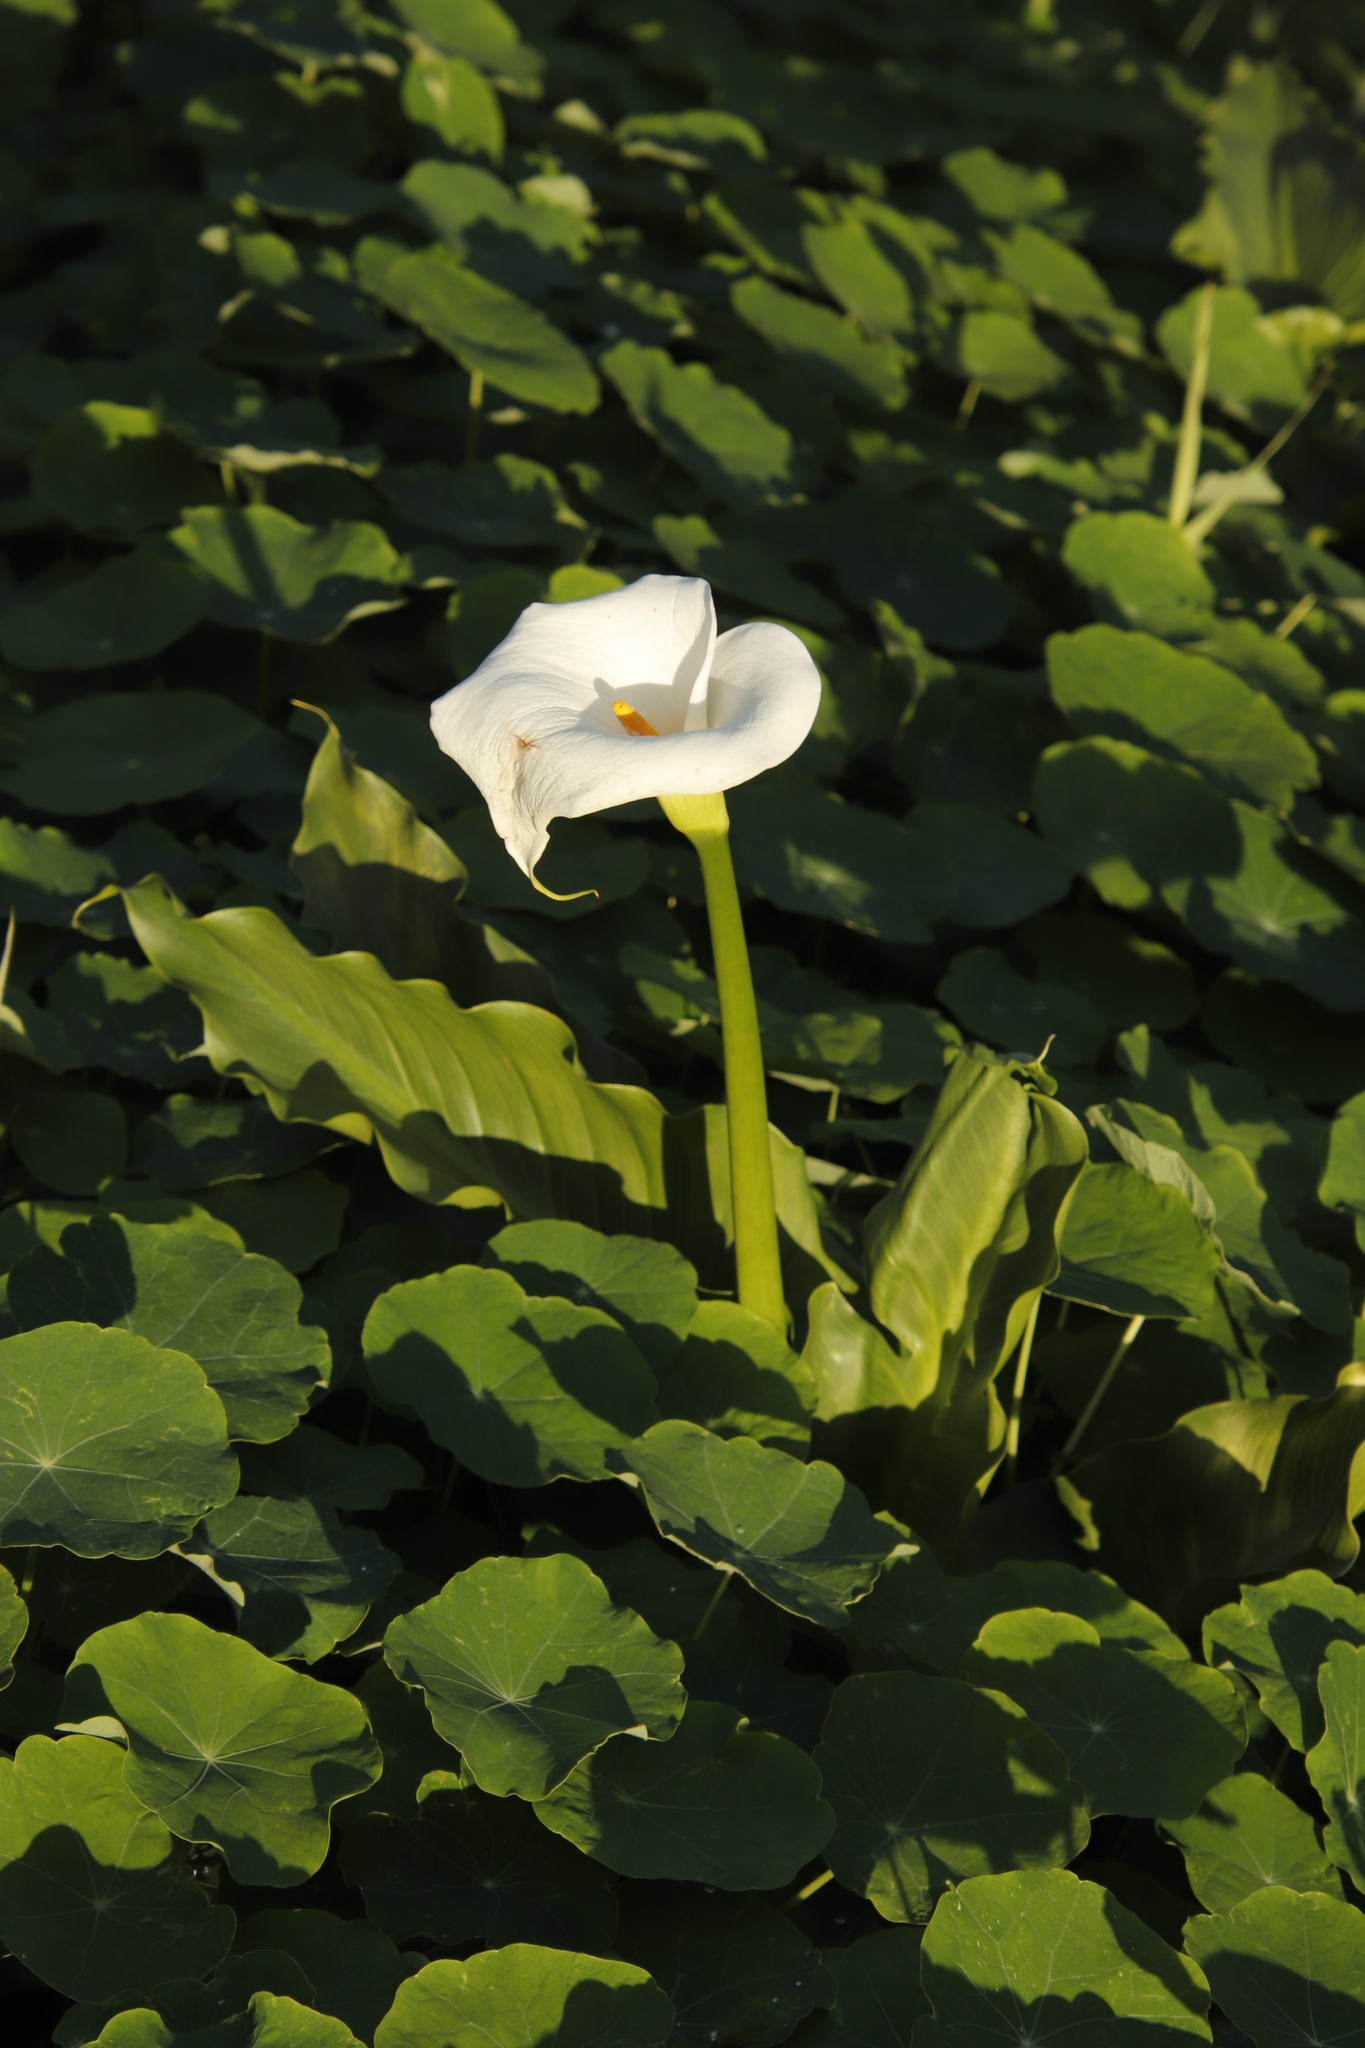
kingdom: Plantae
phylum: Tracheophyta
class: Liliopsida
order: Alismatales
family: Araceae
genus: Zantedeschia
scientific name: Zantedeschia aethiopica
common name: Altar-lily
